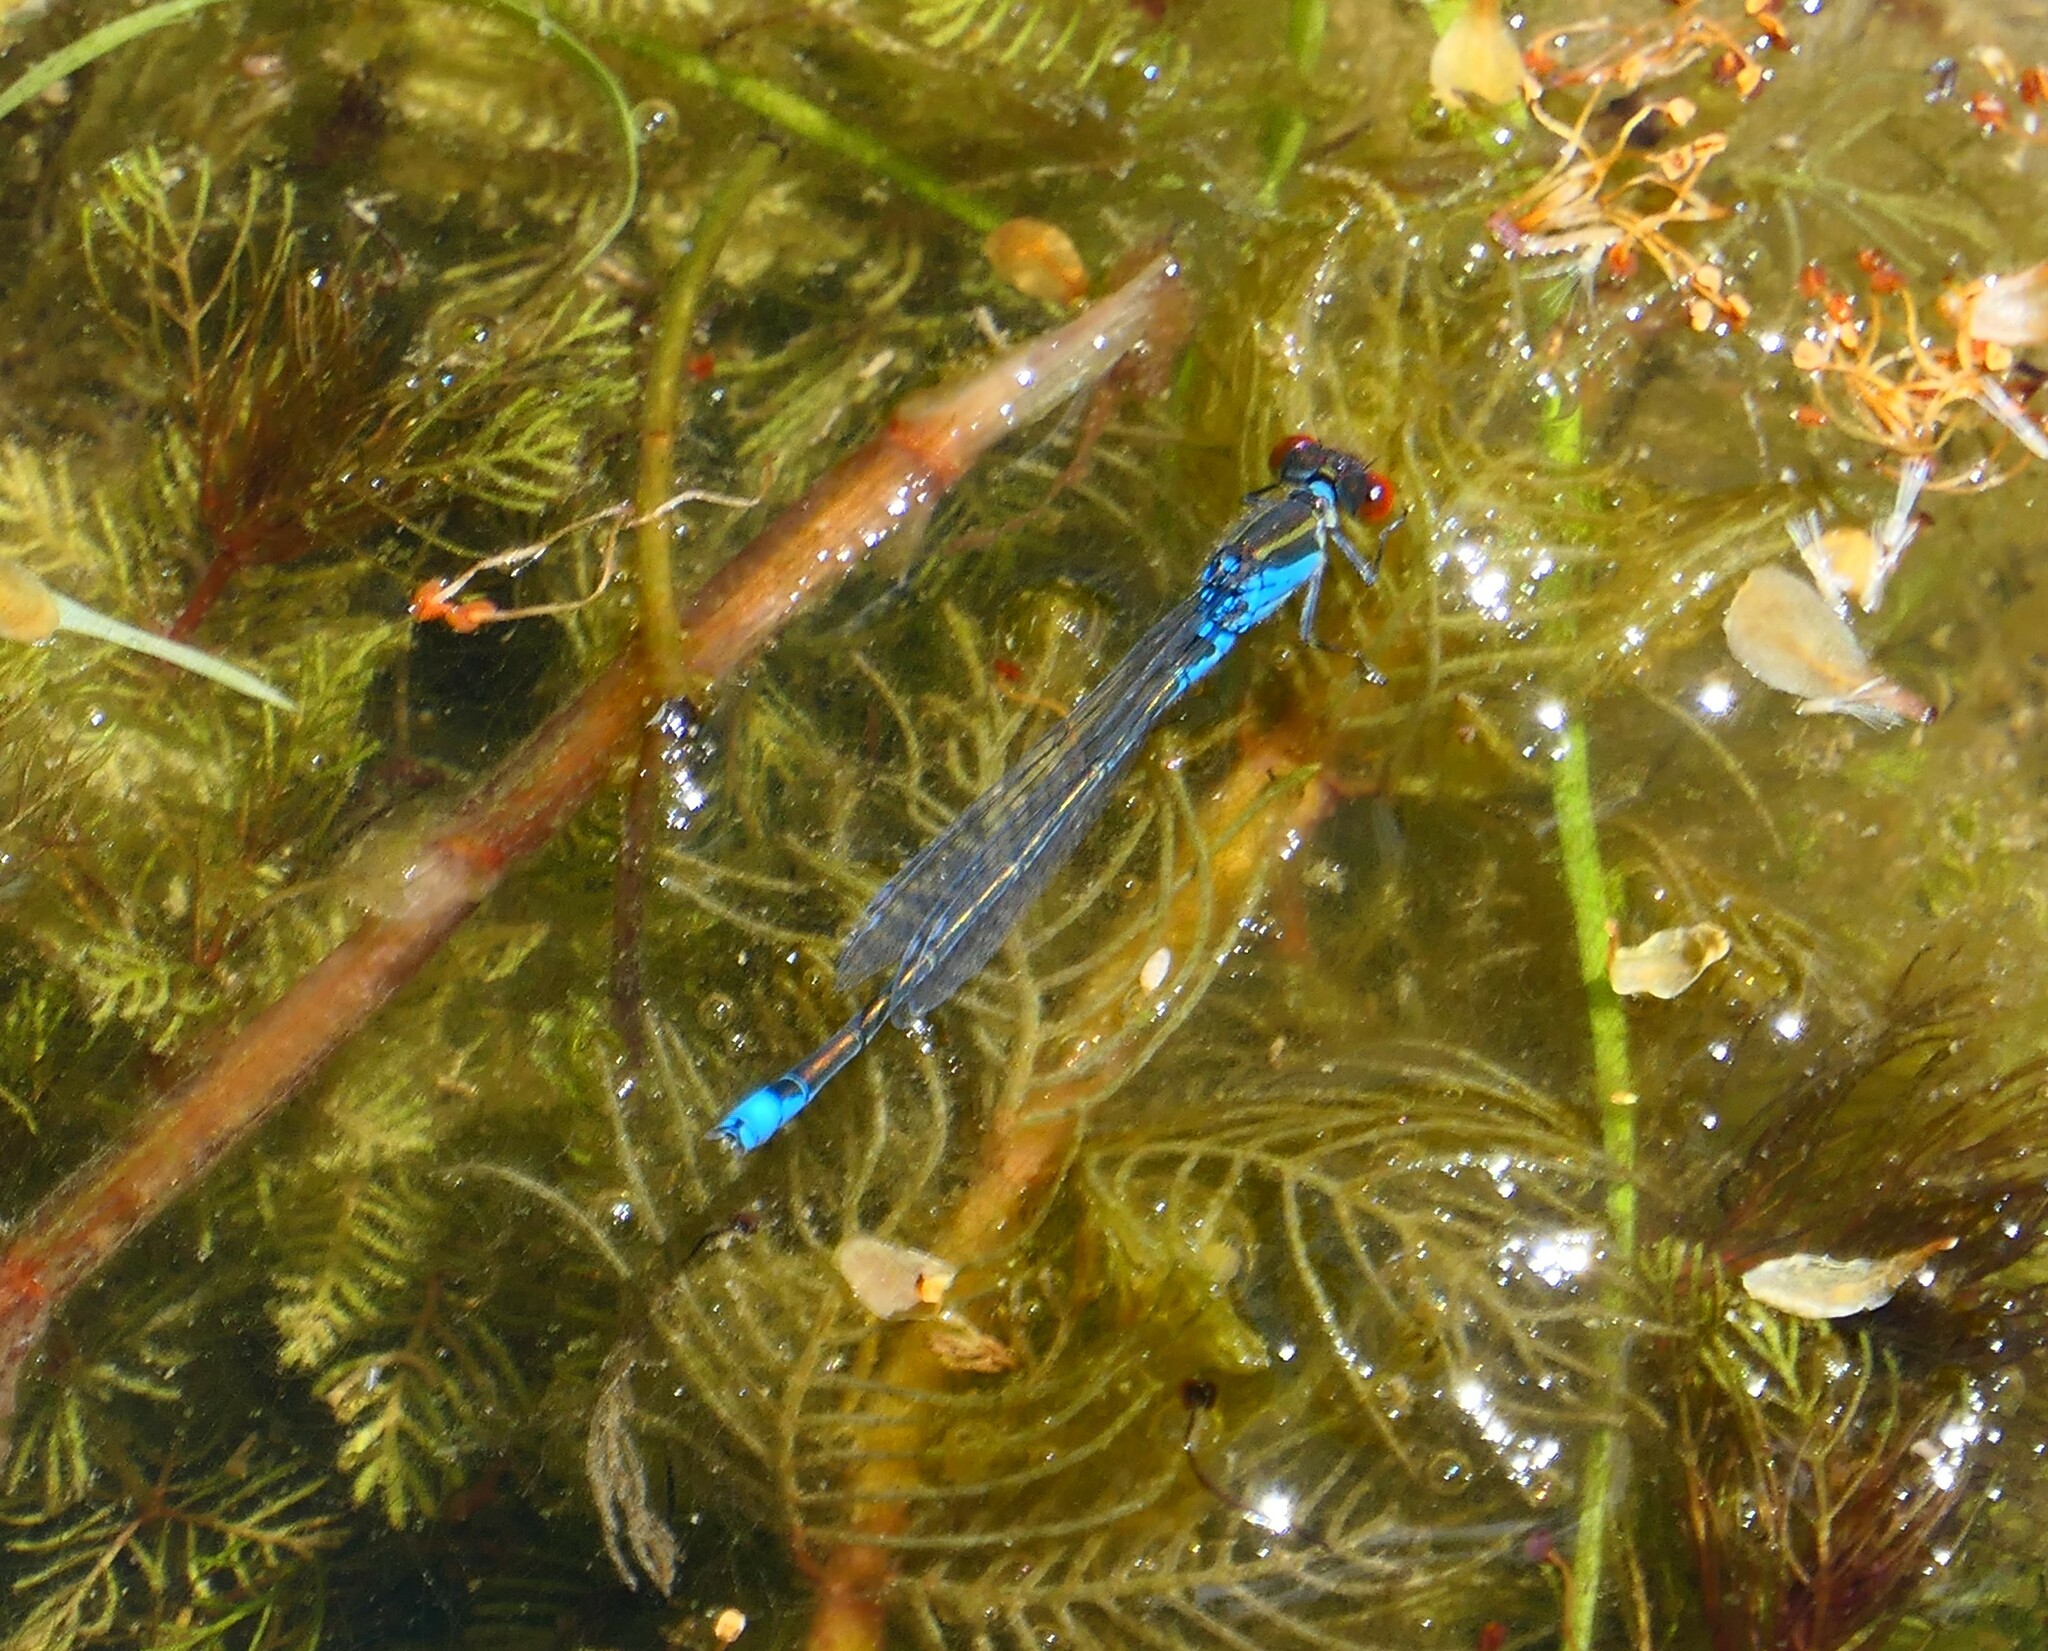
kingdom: Animalia
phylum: Arthropoda
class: Insecta
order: Odonata
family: Coenagrionidae
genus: Erythromma
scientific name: Erythromma viridulum
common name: Small red-eyed damselfly
